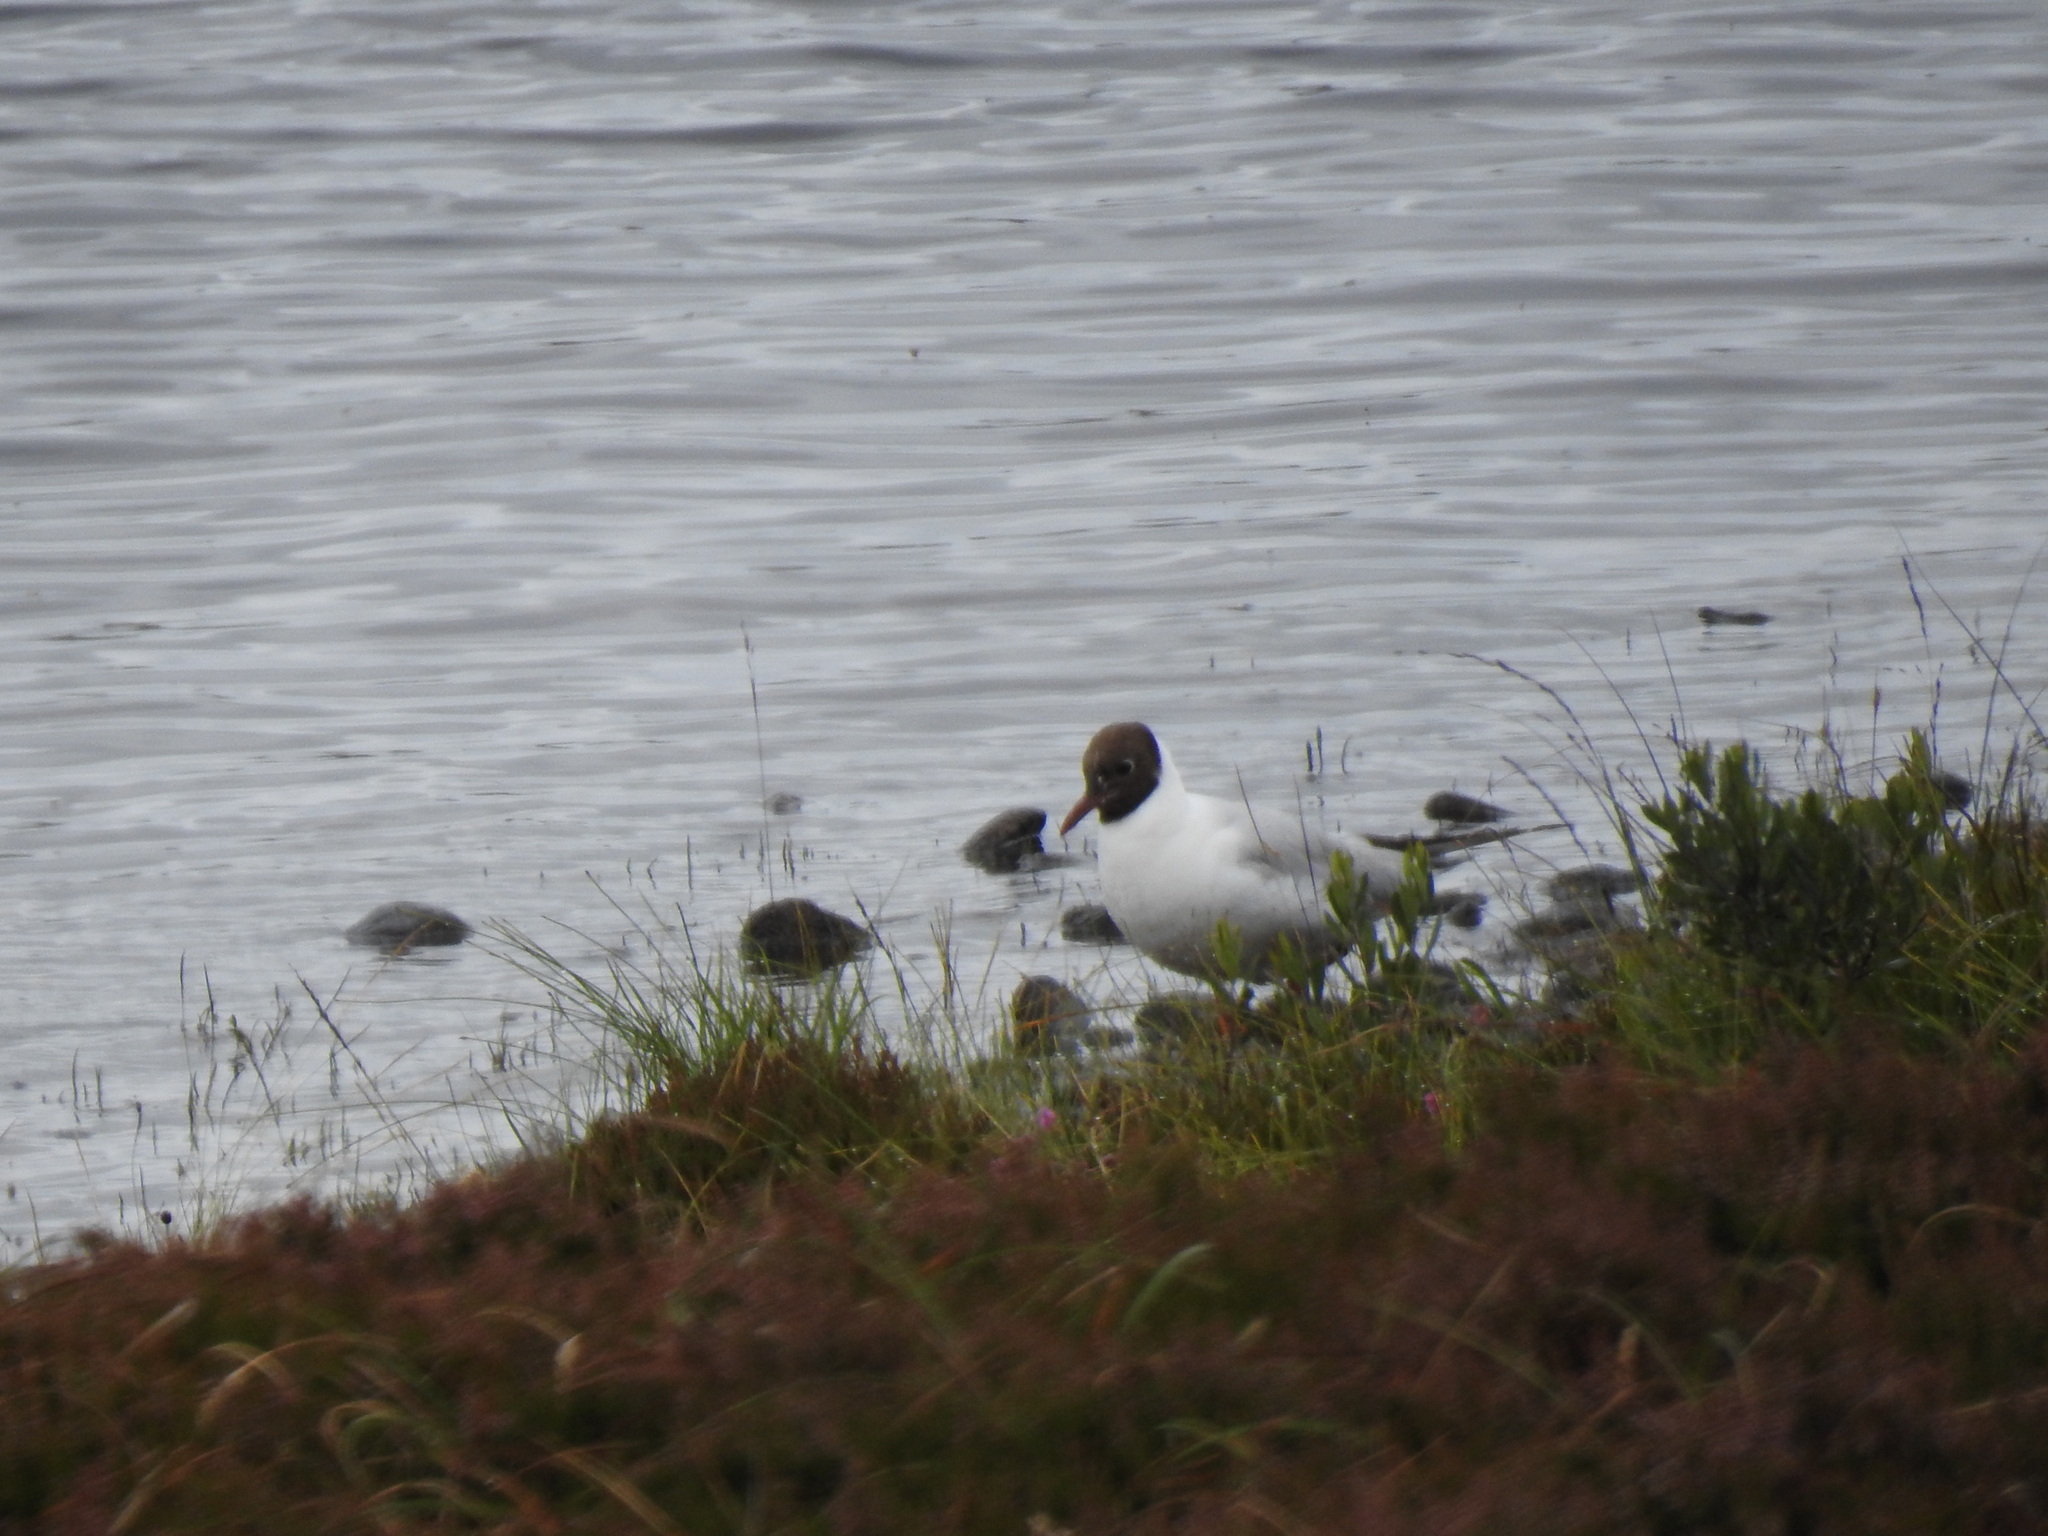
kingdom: Animalia
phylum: Chordata
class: Aves
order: Charadriiformes
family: Laridae
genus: Chroicocephalus
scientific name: Chroicocephalus ridibundus
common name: Black-headed gull
